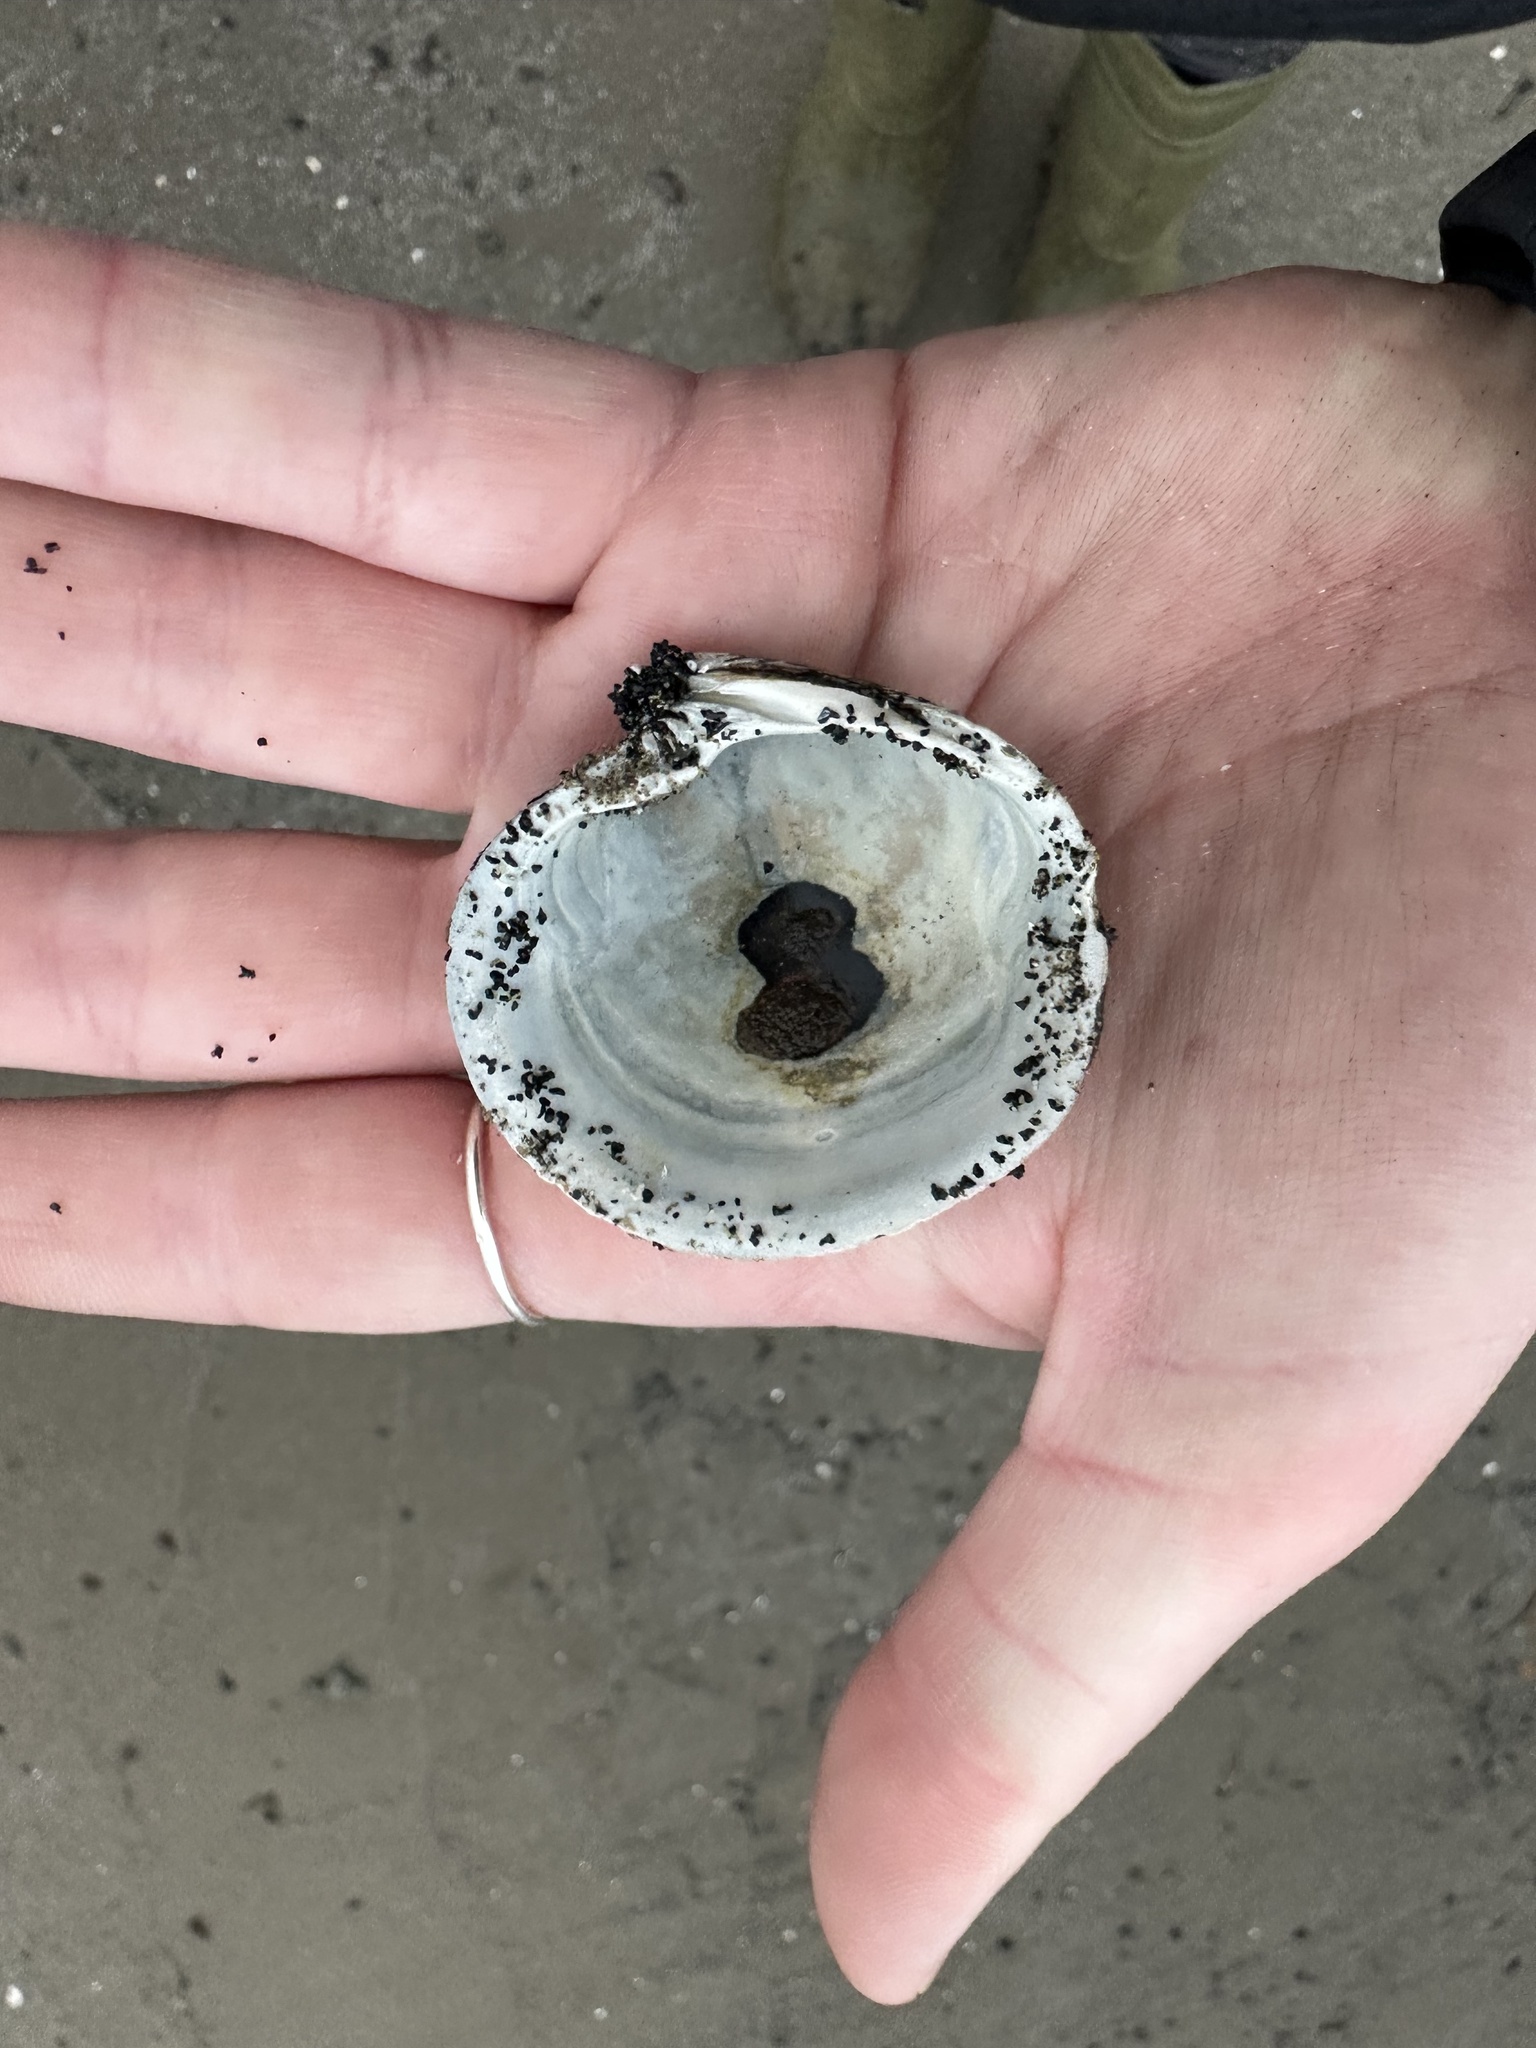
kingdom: Animalia
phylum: Mollusca
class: Bivalvia
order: Venerida
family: Arcticidae
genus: Arctica
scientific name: Arctica islandica
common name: Icelandic cyprine
